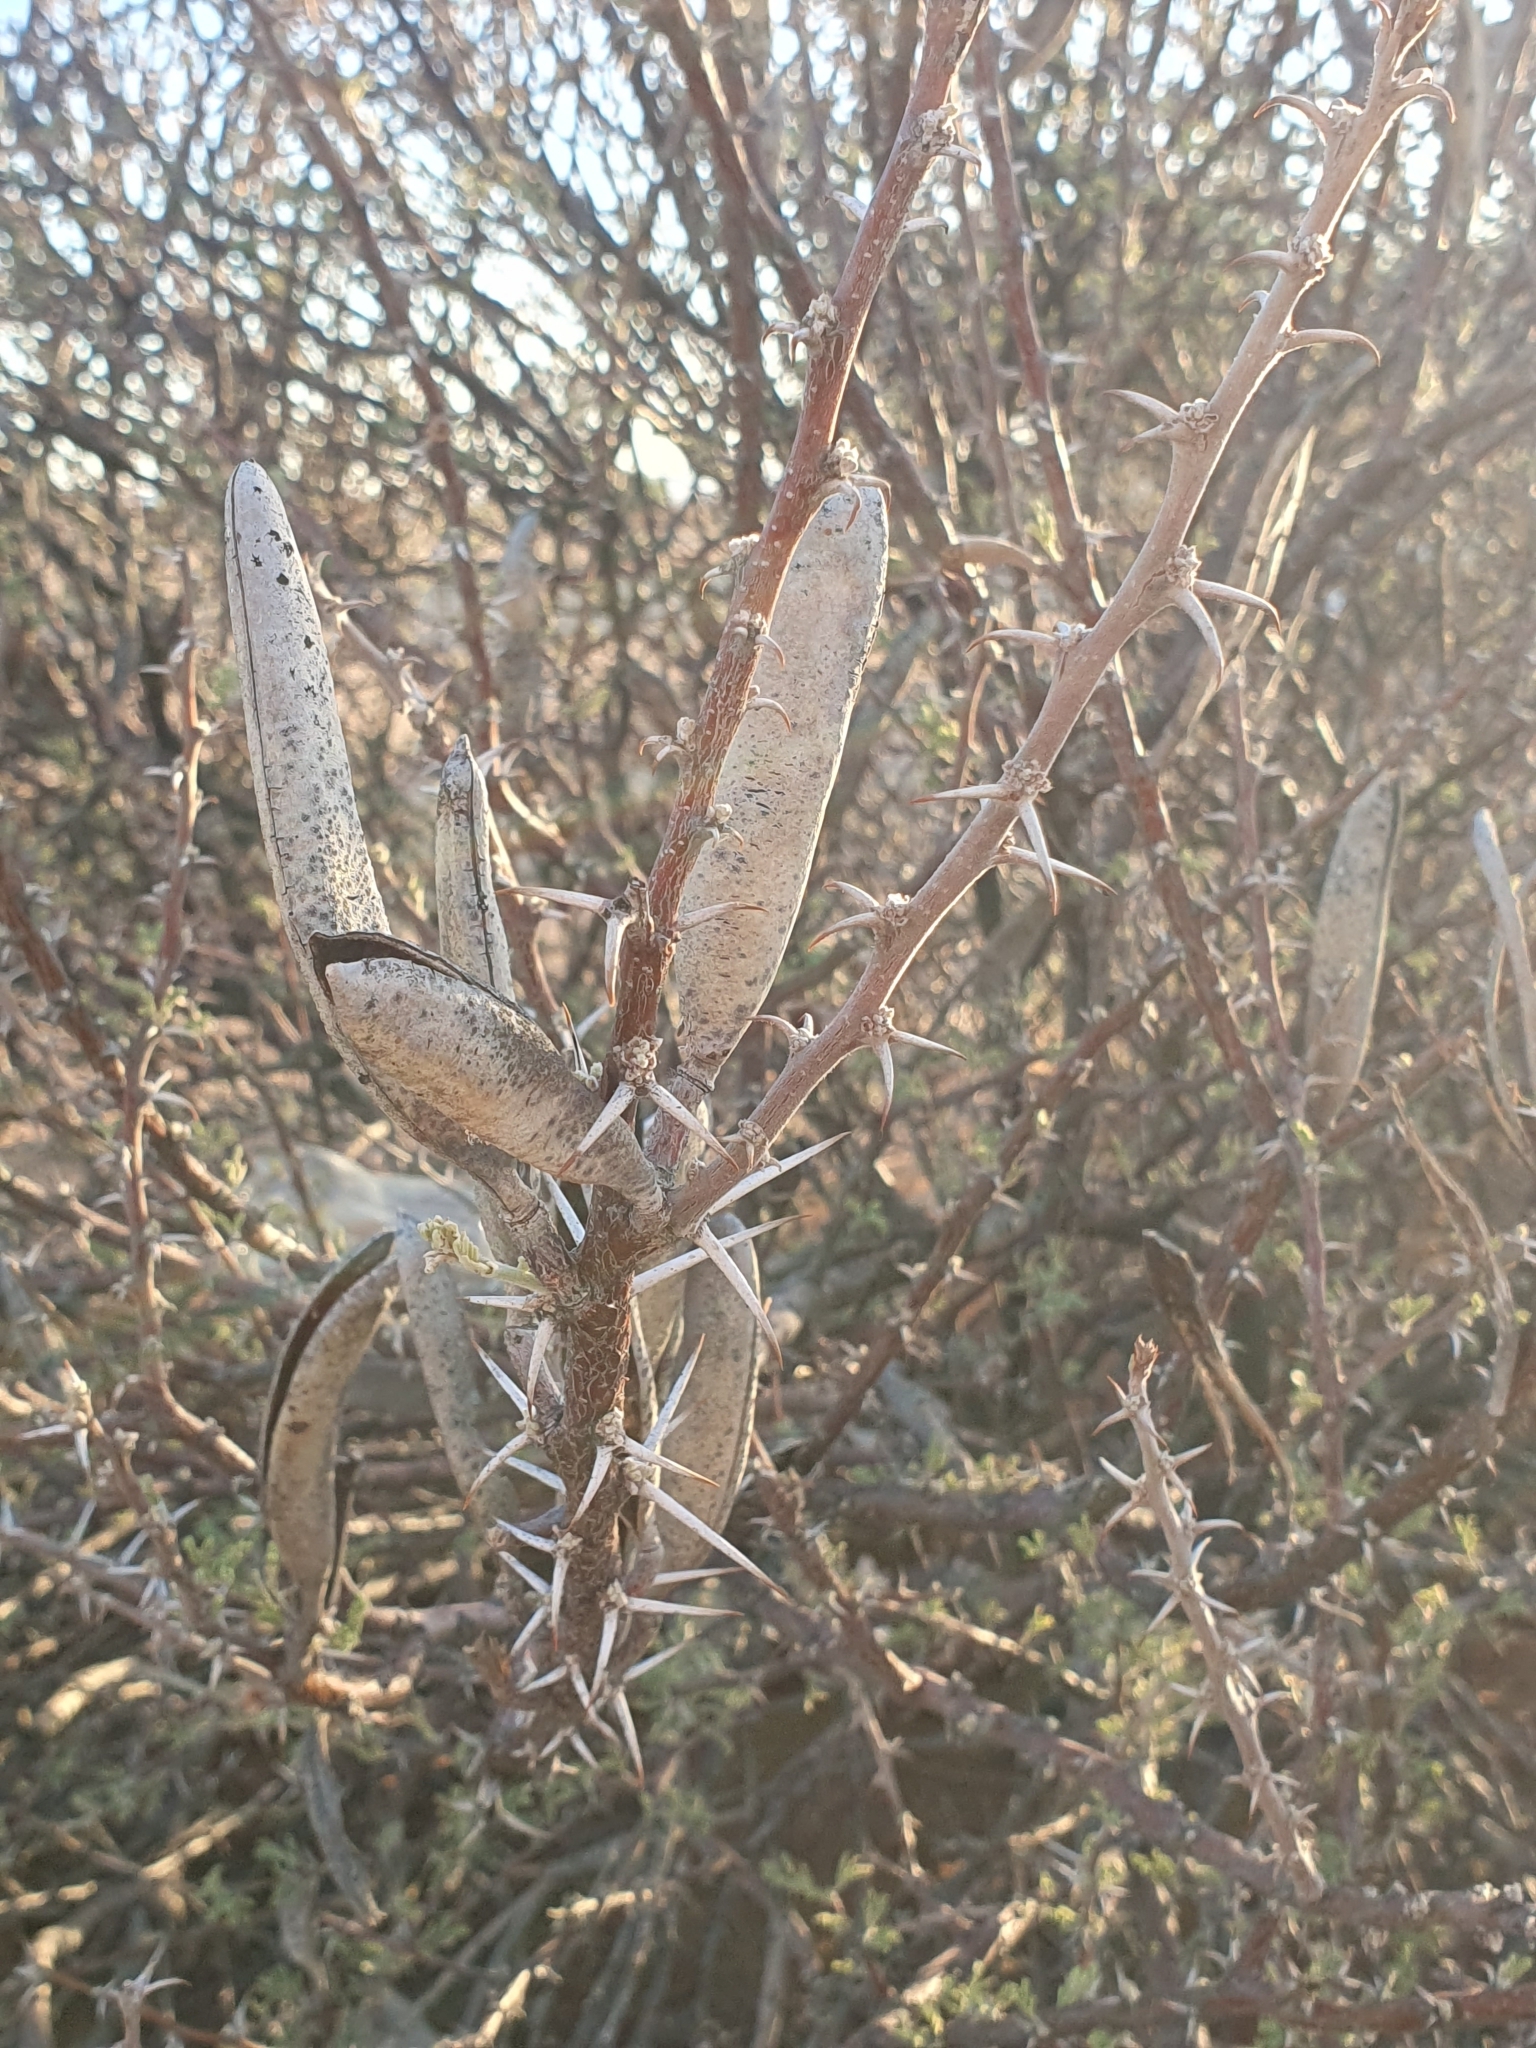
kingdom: Plantae
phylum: Tracheophyta
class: Magnoliopsida
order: Fabales
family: Fabaceae
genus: Vachellia
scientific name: Vachellia hebeclada
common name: Candle thorn
